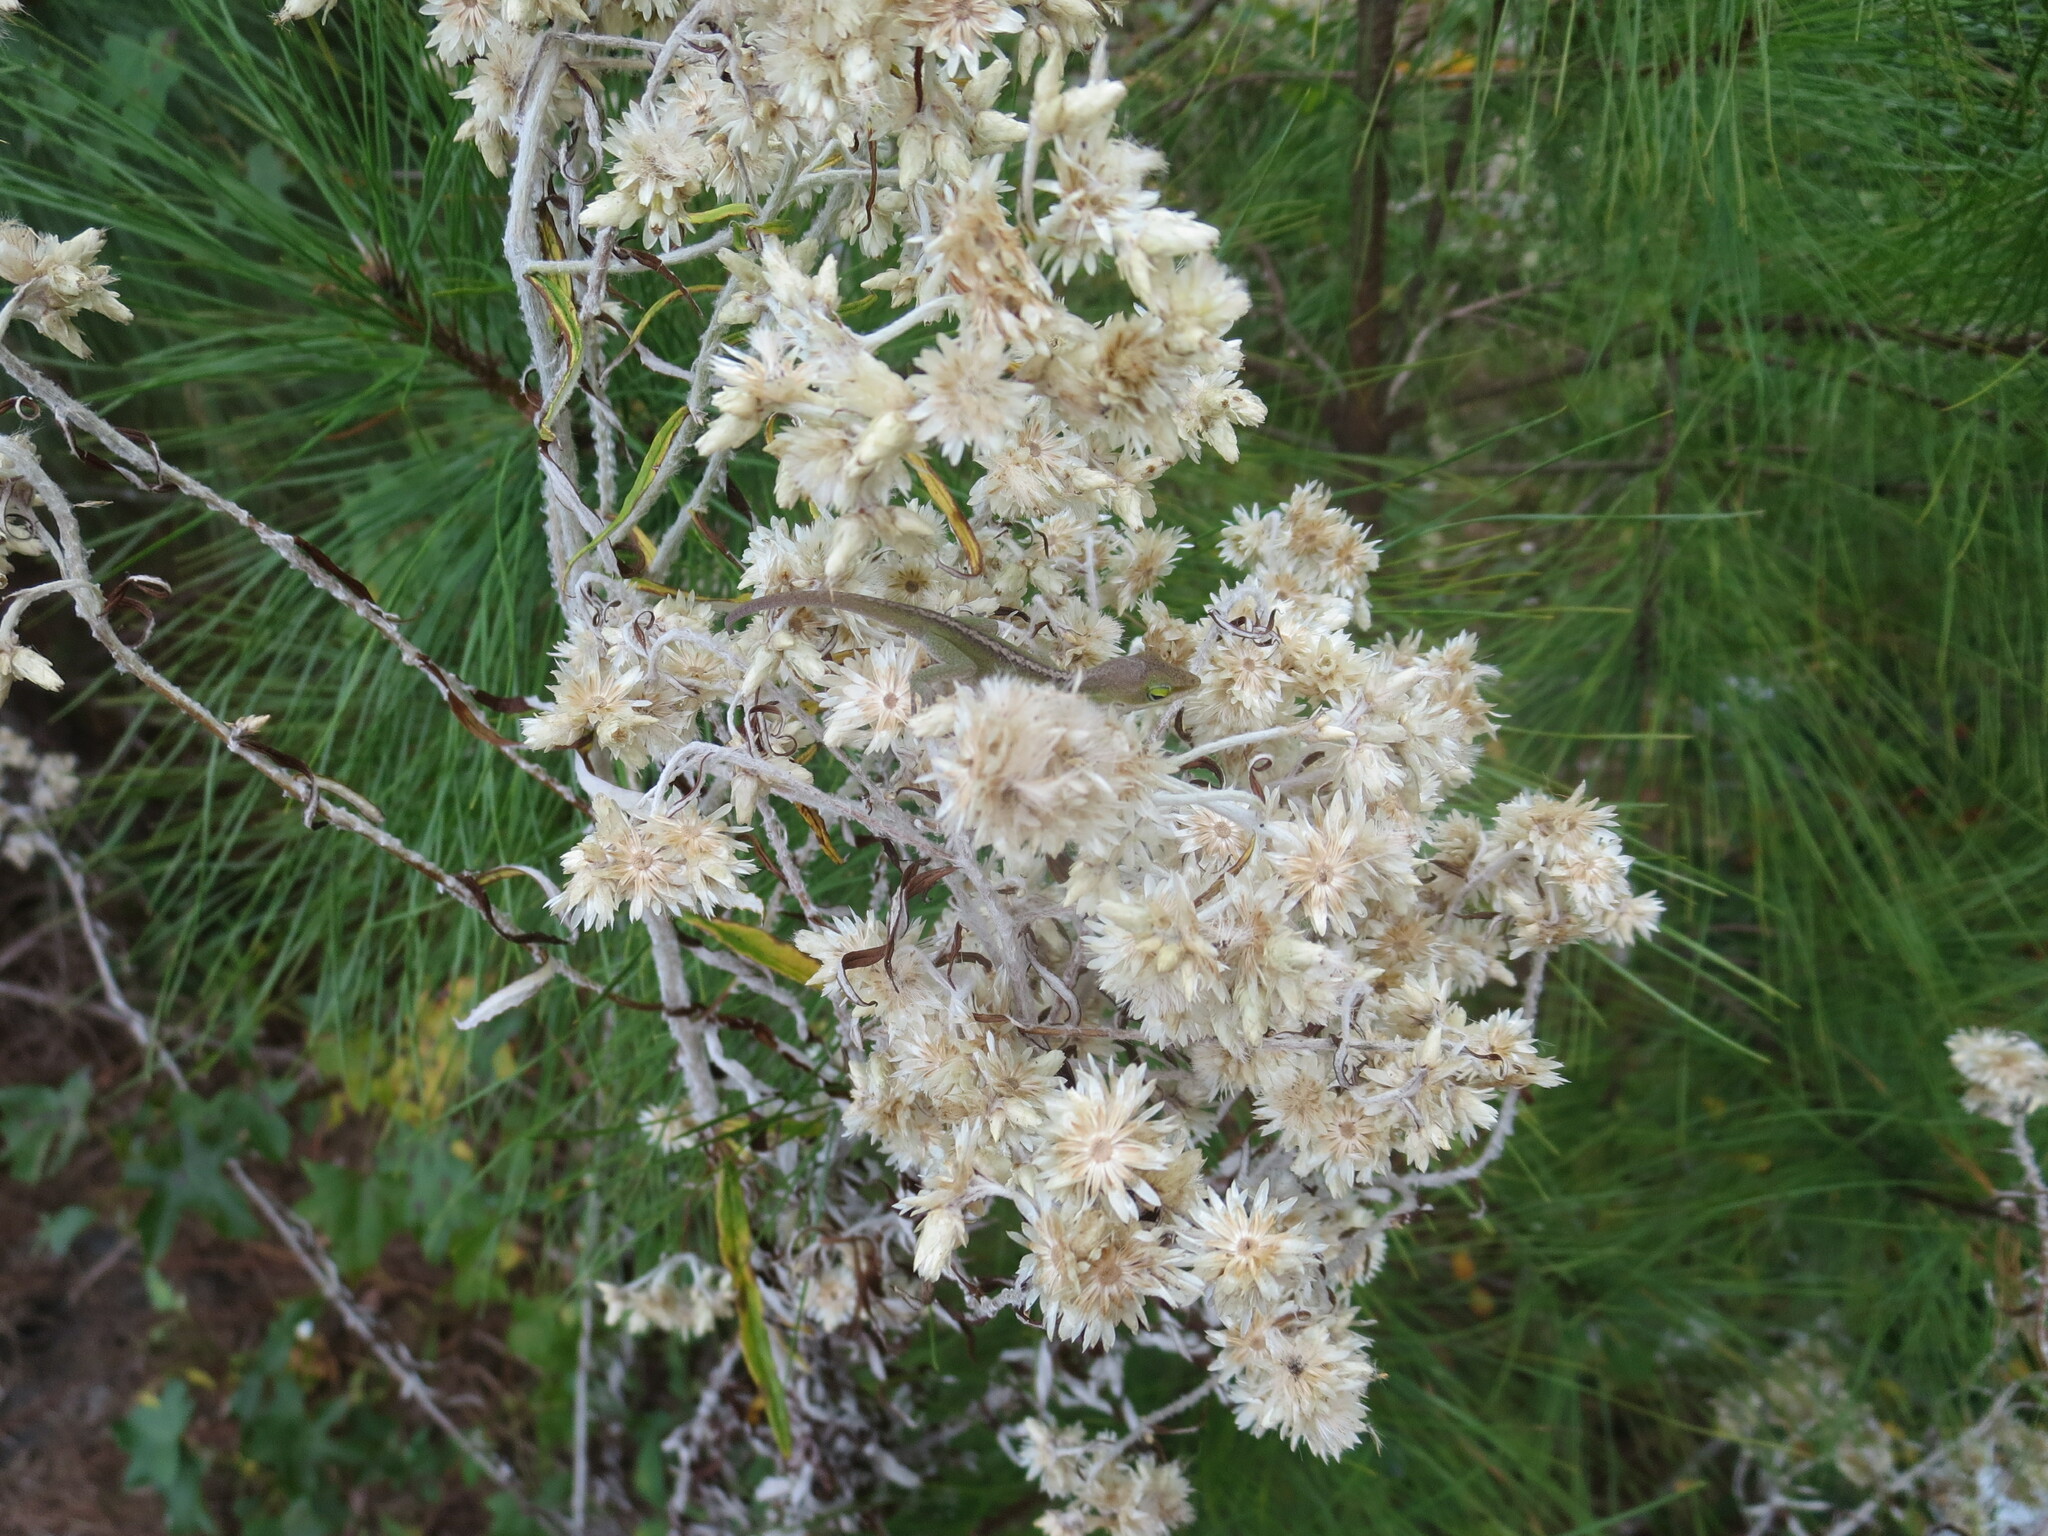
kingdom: Animalia
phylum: Chordata
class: Squamata
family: Dactyloidae
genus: Anolis
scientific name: Anolis carolinensis
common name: Green anole
